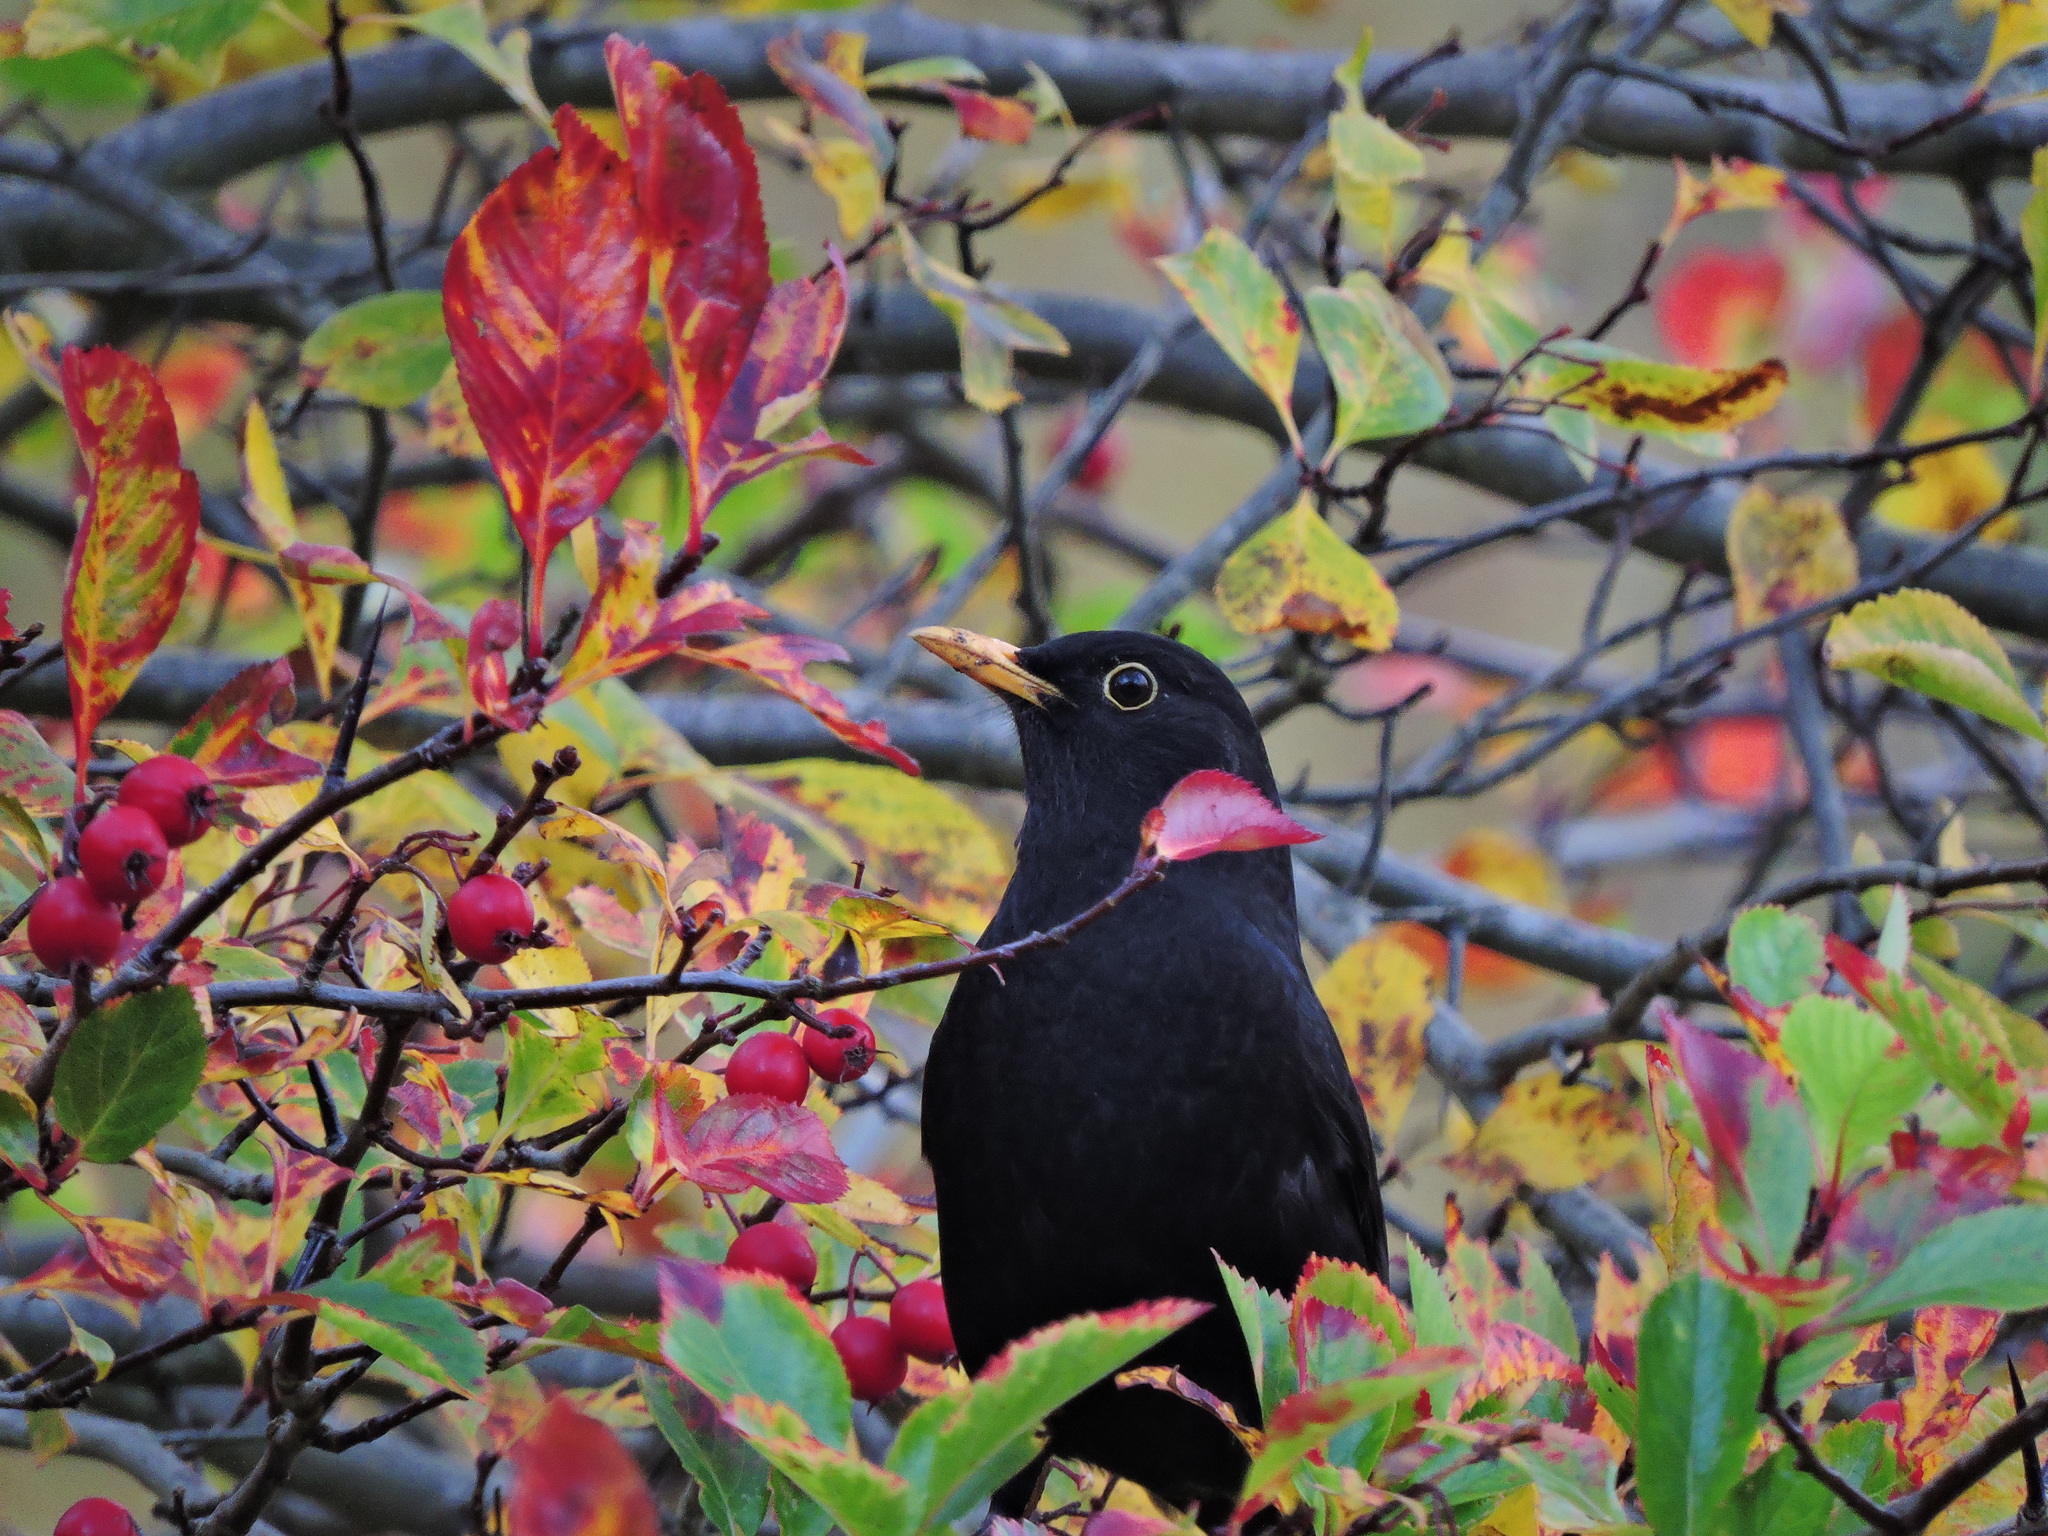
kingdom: Animalia
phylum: Chordata
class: Aves
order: Passeriformes
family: Turdidae
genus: Turdus
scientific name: Turdus merula
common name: Common blackbird
